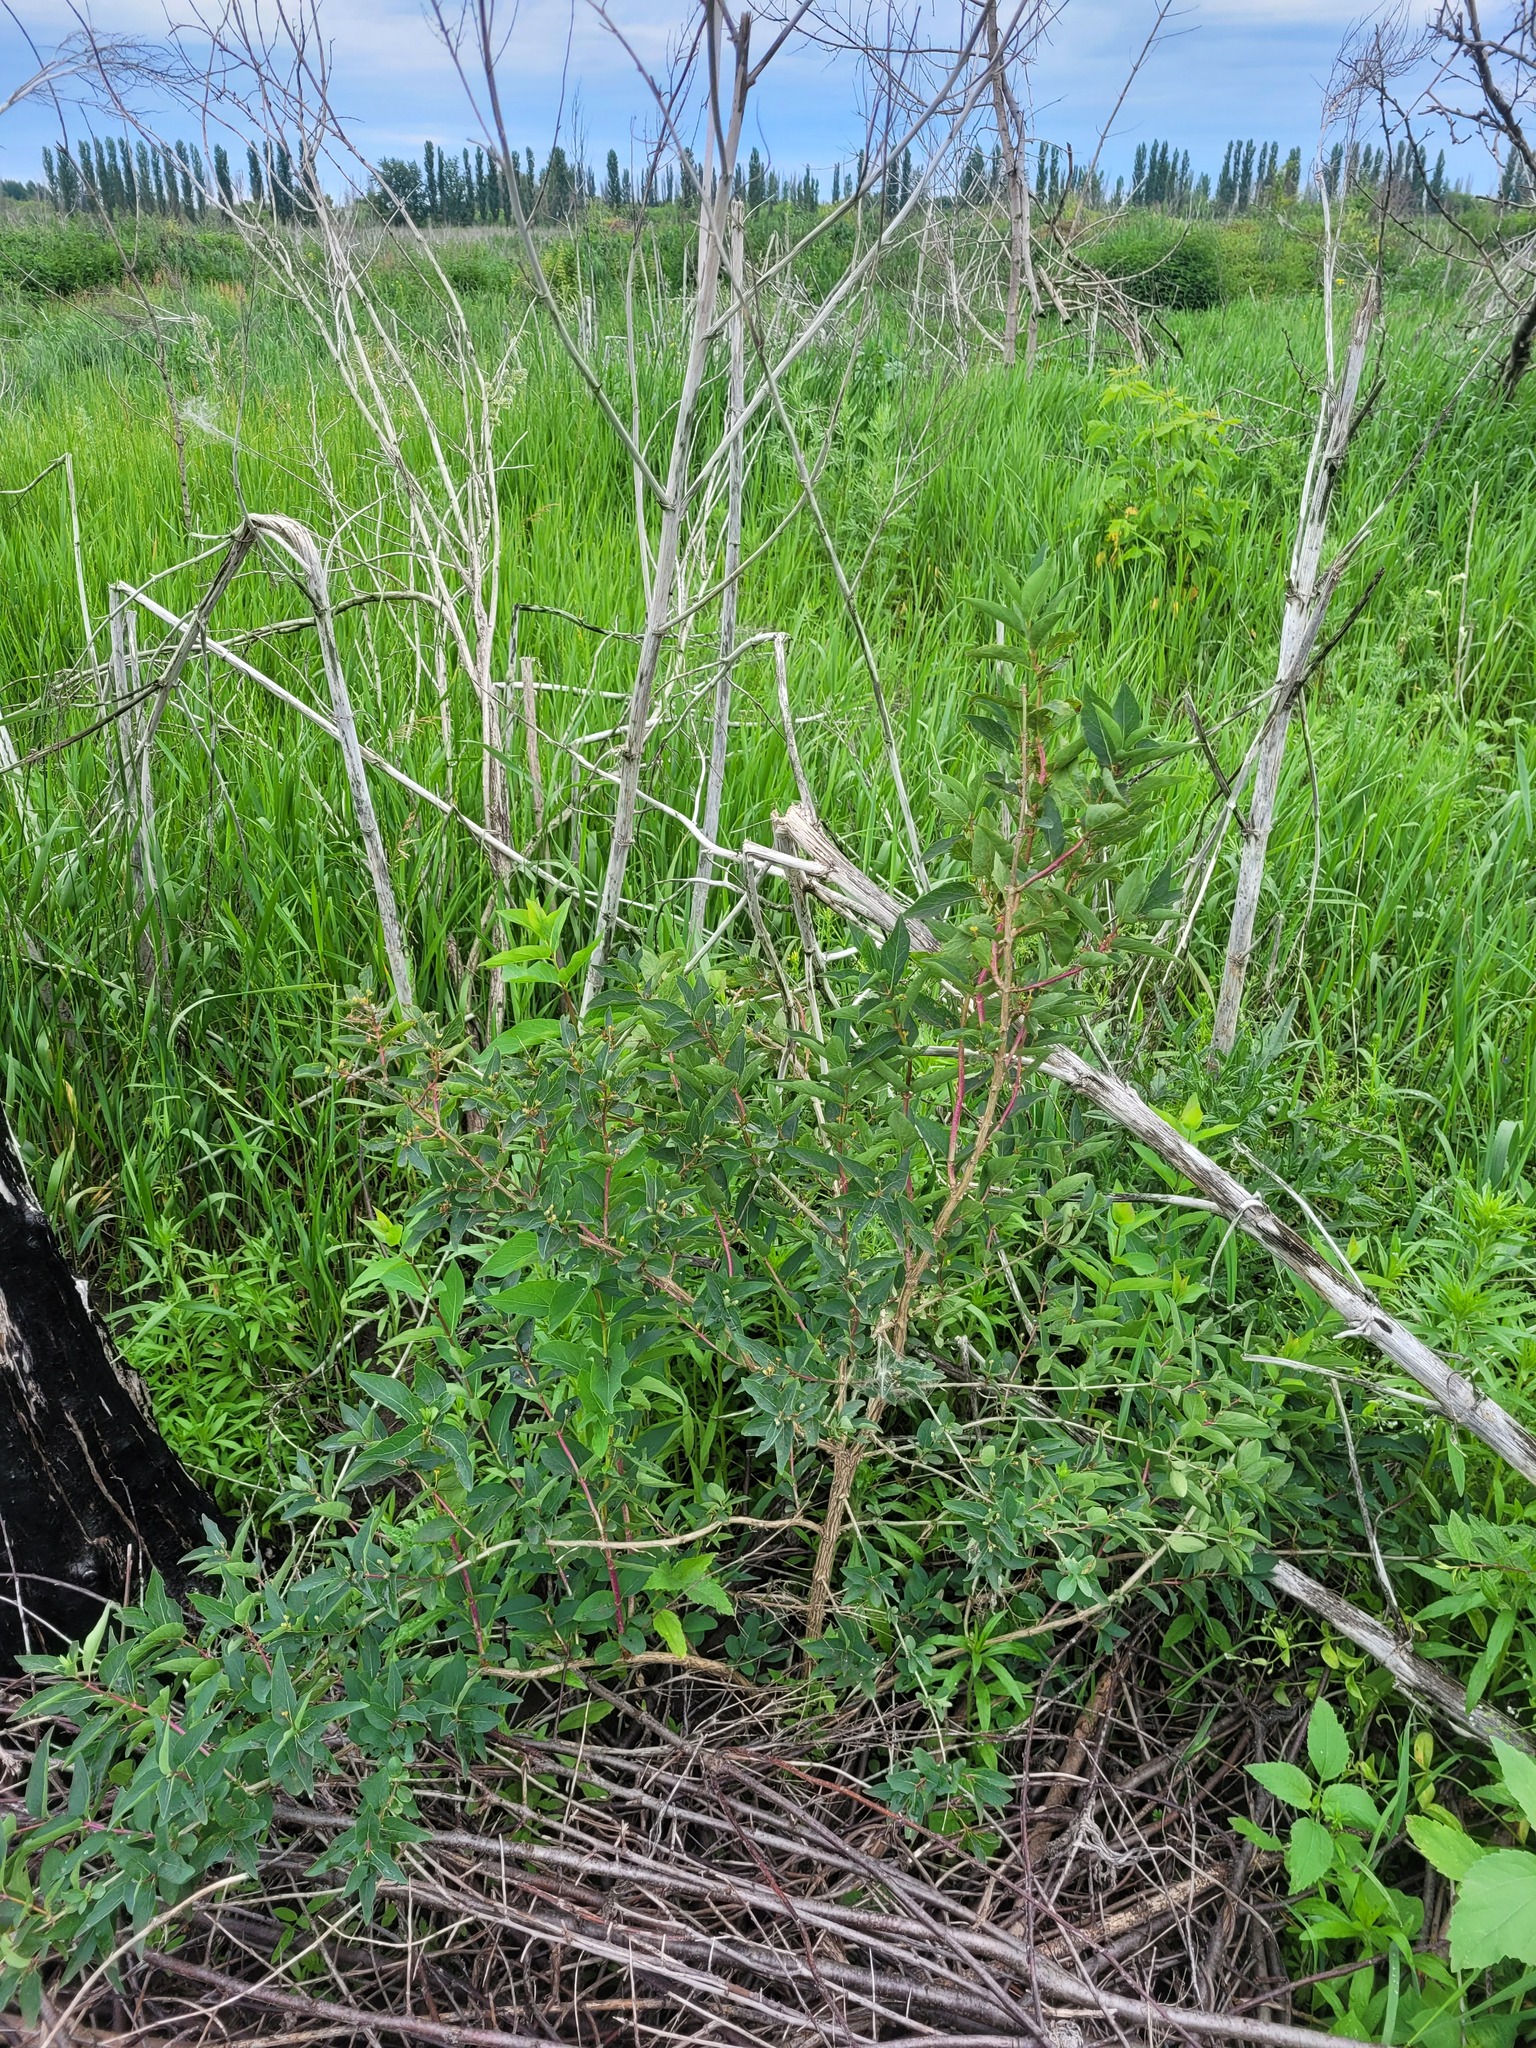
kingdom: Plantae
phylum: Tracheophyta
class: Magnoliopsida
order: Dipsacales
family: Caprifoliaceae
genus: Lonicera
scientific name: Lonicera tatarica
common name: Tatarian honeysuckle
